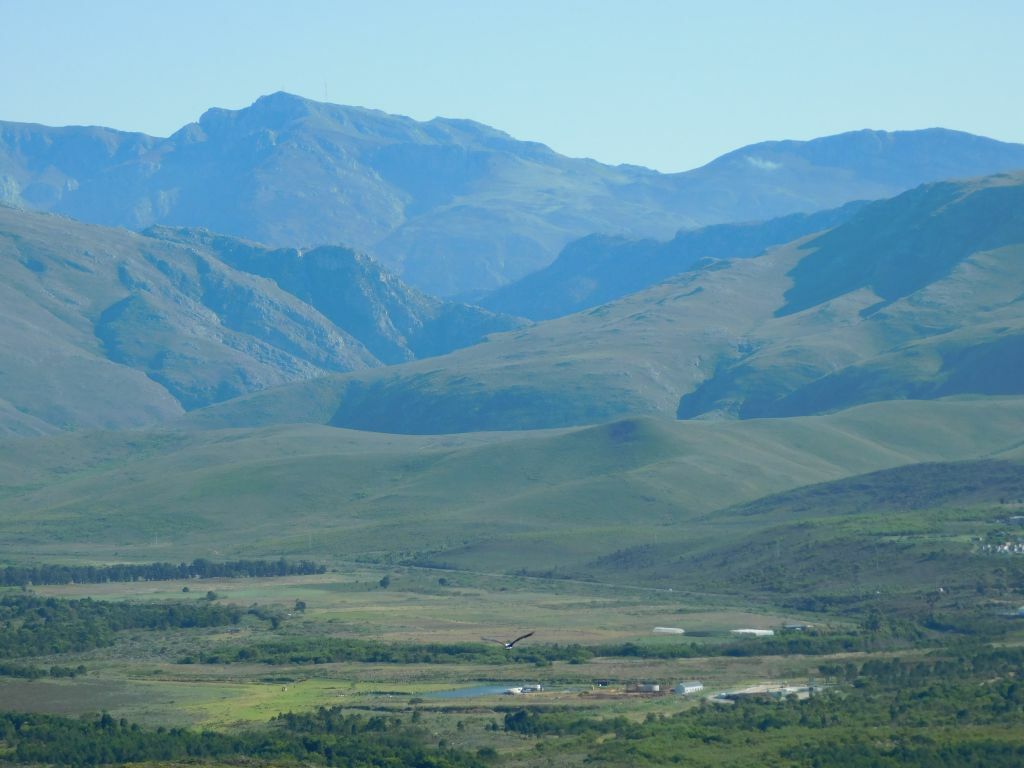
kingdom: Animalia
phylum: Chordata
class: Aves
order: Accipitriformes
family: Accipitridae
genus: Haliaeetus
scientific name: Haliaeetus vocifer
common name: African fish eagle
